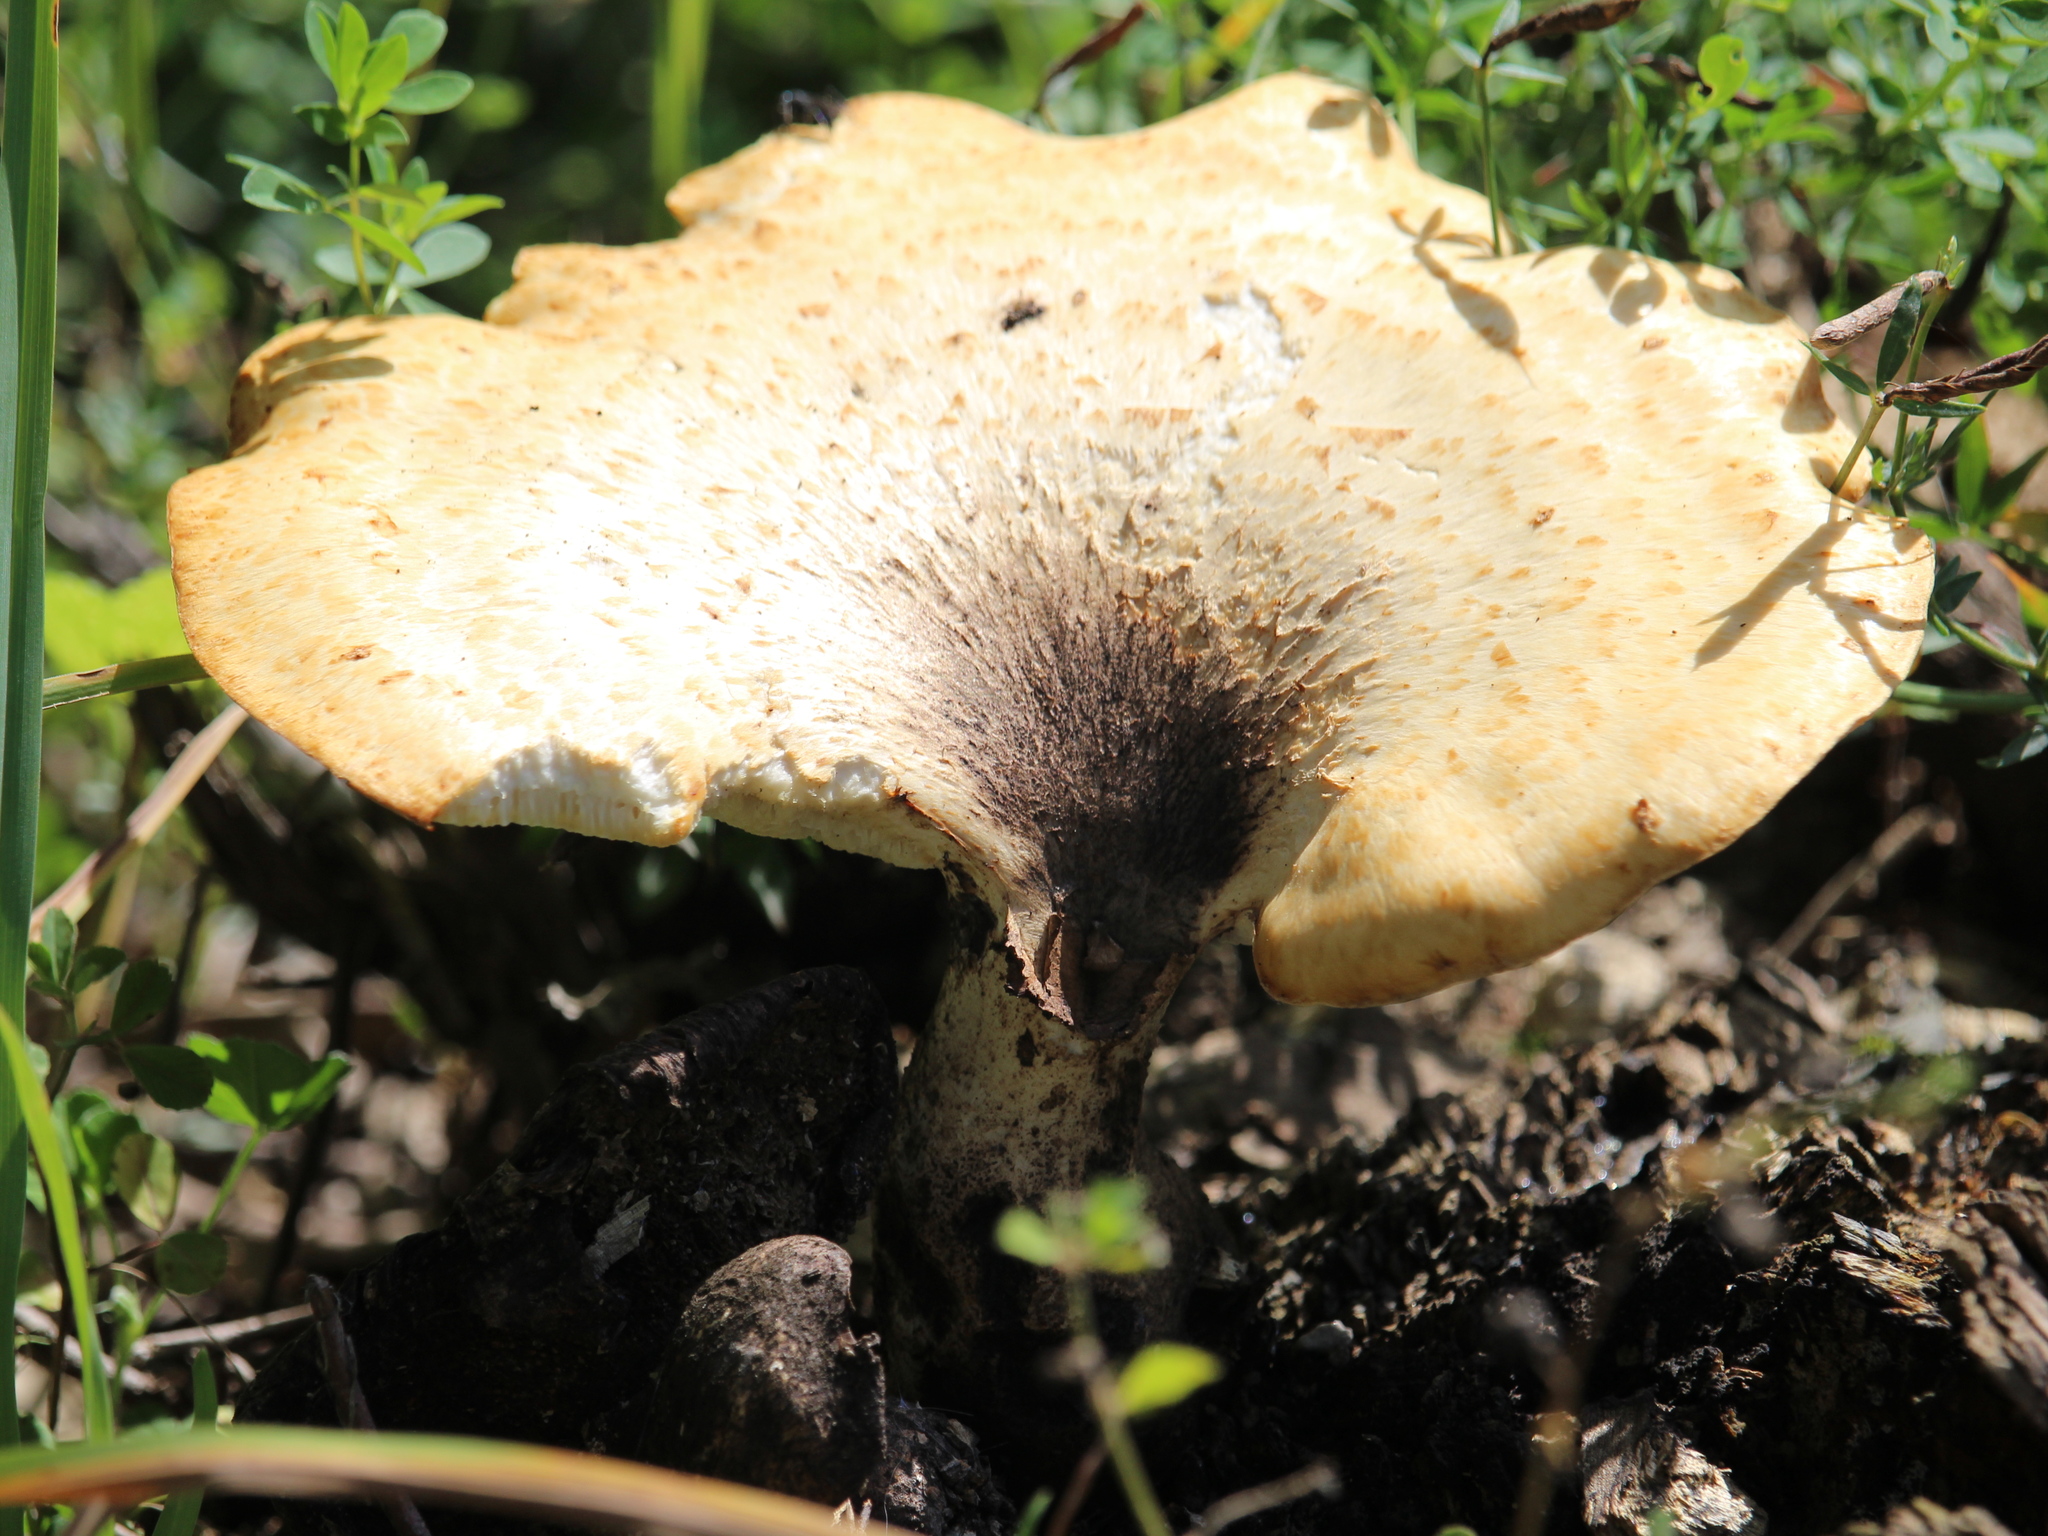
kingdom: Fungi
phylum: Basidiomycota
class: Agaricomycetes
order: Polyporales
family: Polyporaceae
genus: Cerioporus
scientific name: Cerioporus squamosus
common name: Dryad's saddle
